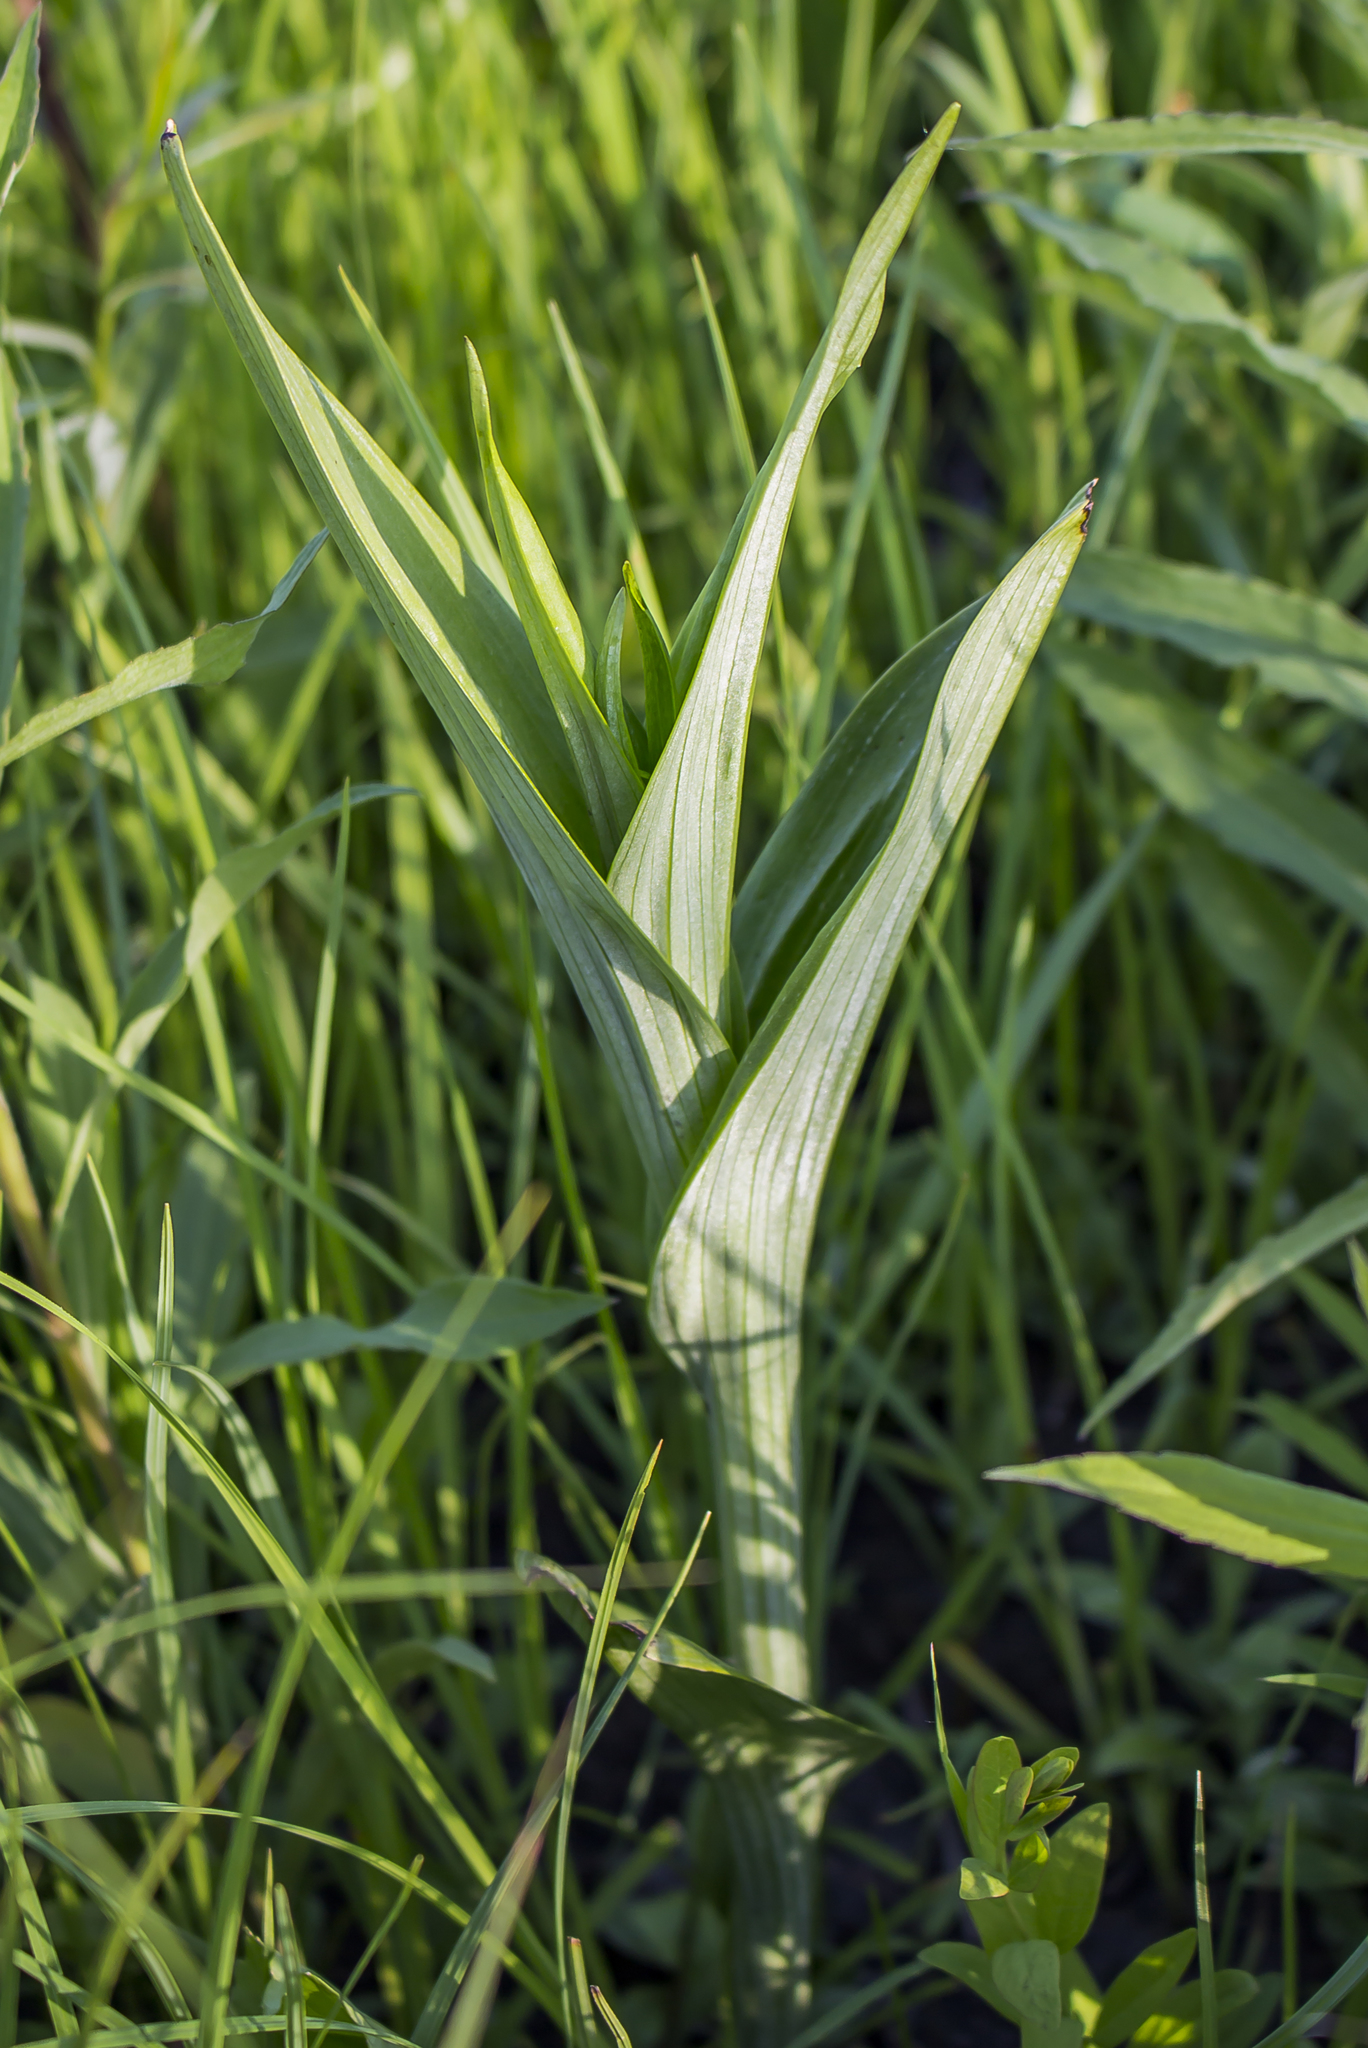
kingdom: Plantae
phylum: Tracheophyta
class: Liliopsida
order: Asparagales
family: Orchidaceae
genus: Platanthera
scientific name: Platanthera leucophaea
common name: Eastern prairie white-fringed orchid
